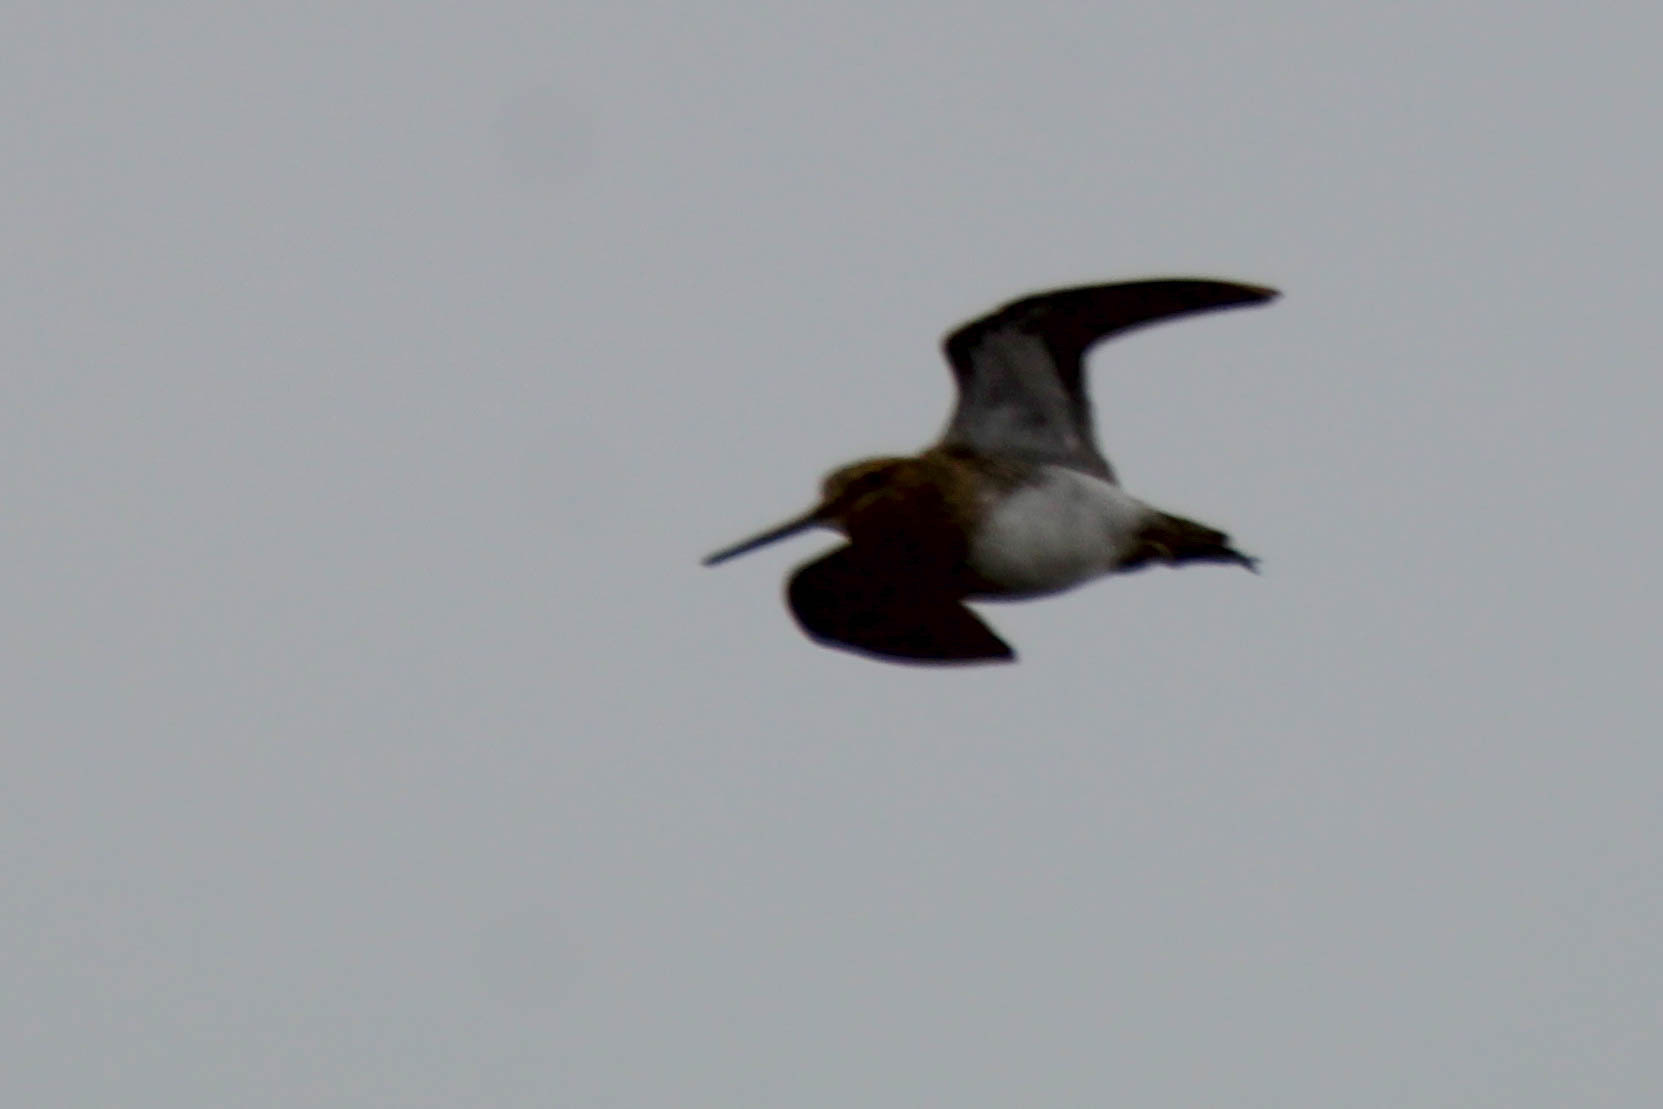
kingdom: Animalia
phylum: Chordata
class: Aves
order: Charadriiformes
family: Scolopacidae
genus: Gallinago
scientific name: Gallinago gallinago
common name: Common snipe
